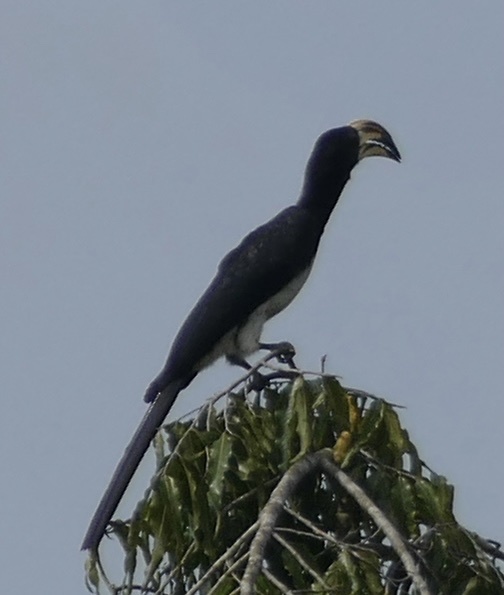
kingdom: Animalia
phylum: Chordata
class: Aves
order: Bucerotiformes
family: Bucerotidae
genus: Lophoceros
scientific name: Lophoceros fasciatus
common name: African pied hornbill
